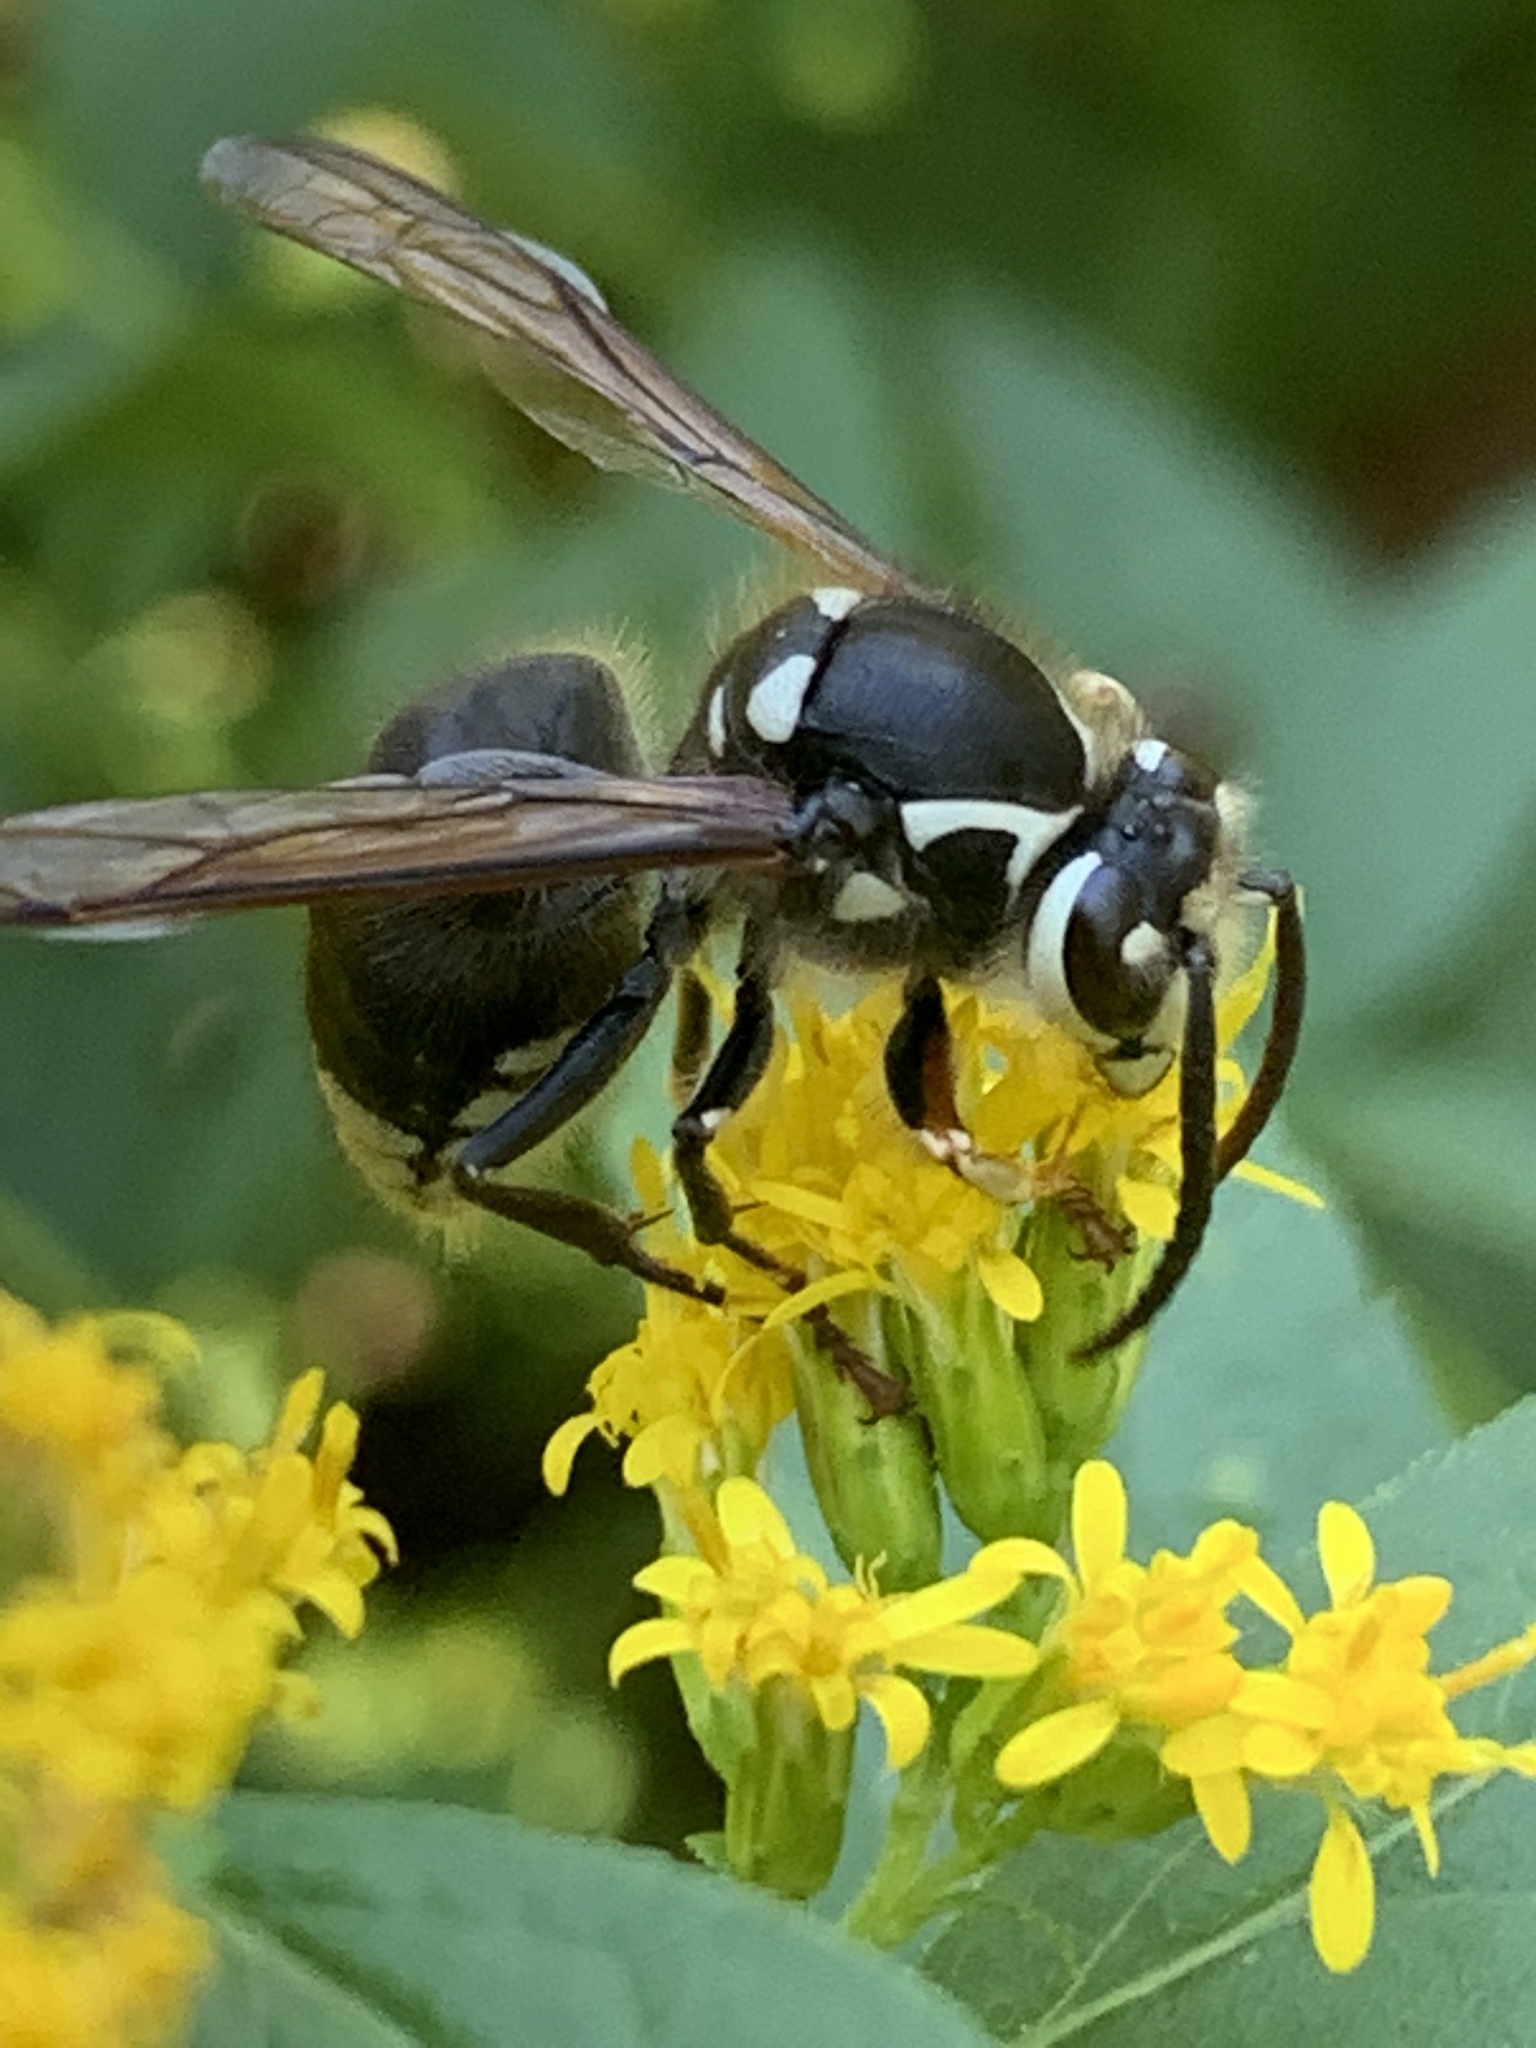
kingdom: Animalia
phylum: Arthropoda
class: Insecta
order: Hymenoptera
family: Vespidae
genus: Dolichovespula
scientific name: Dolichovespula maculata
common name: Bald-faced hornet
